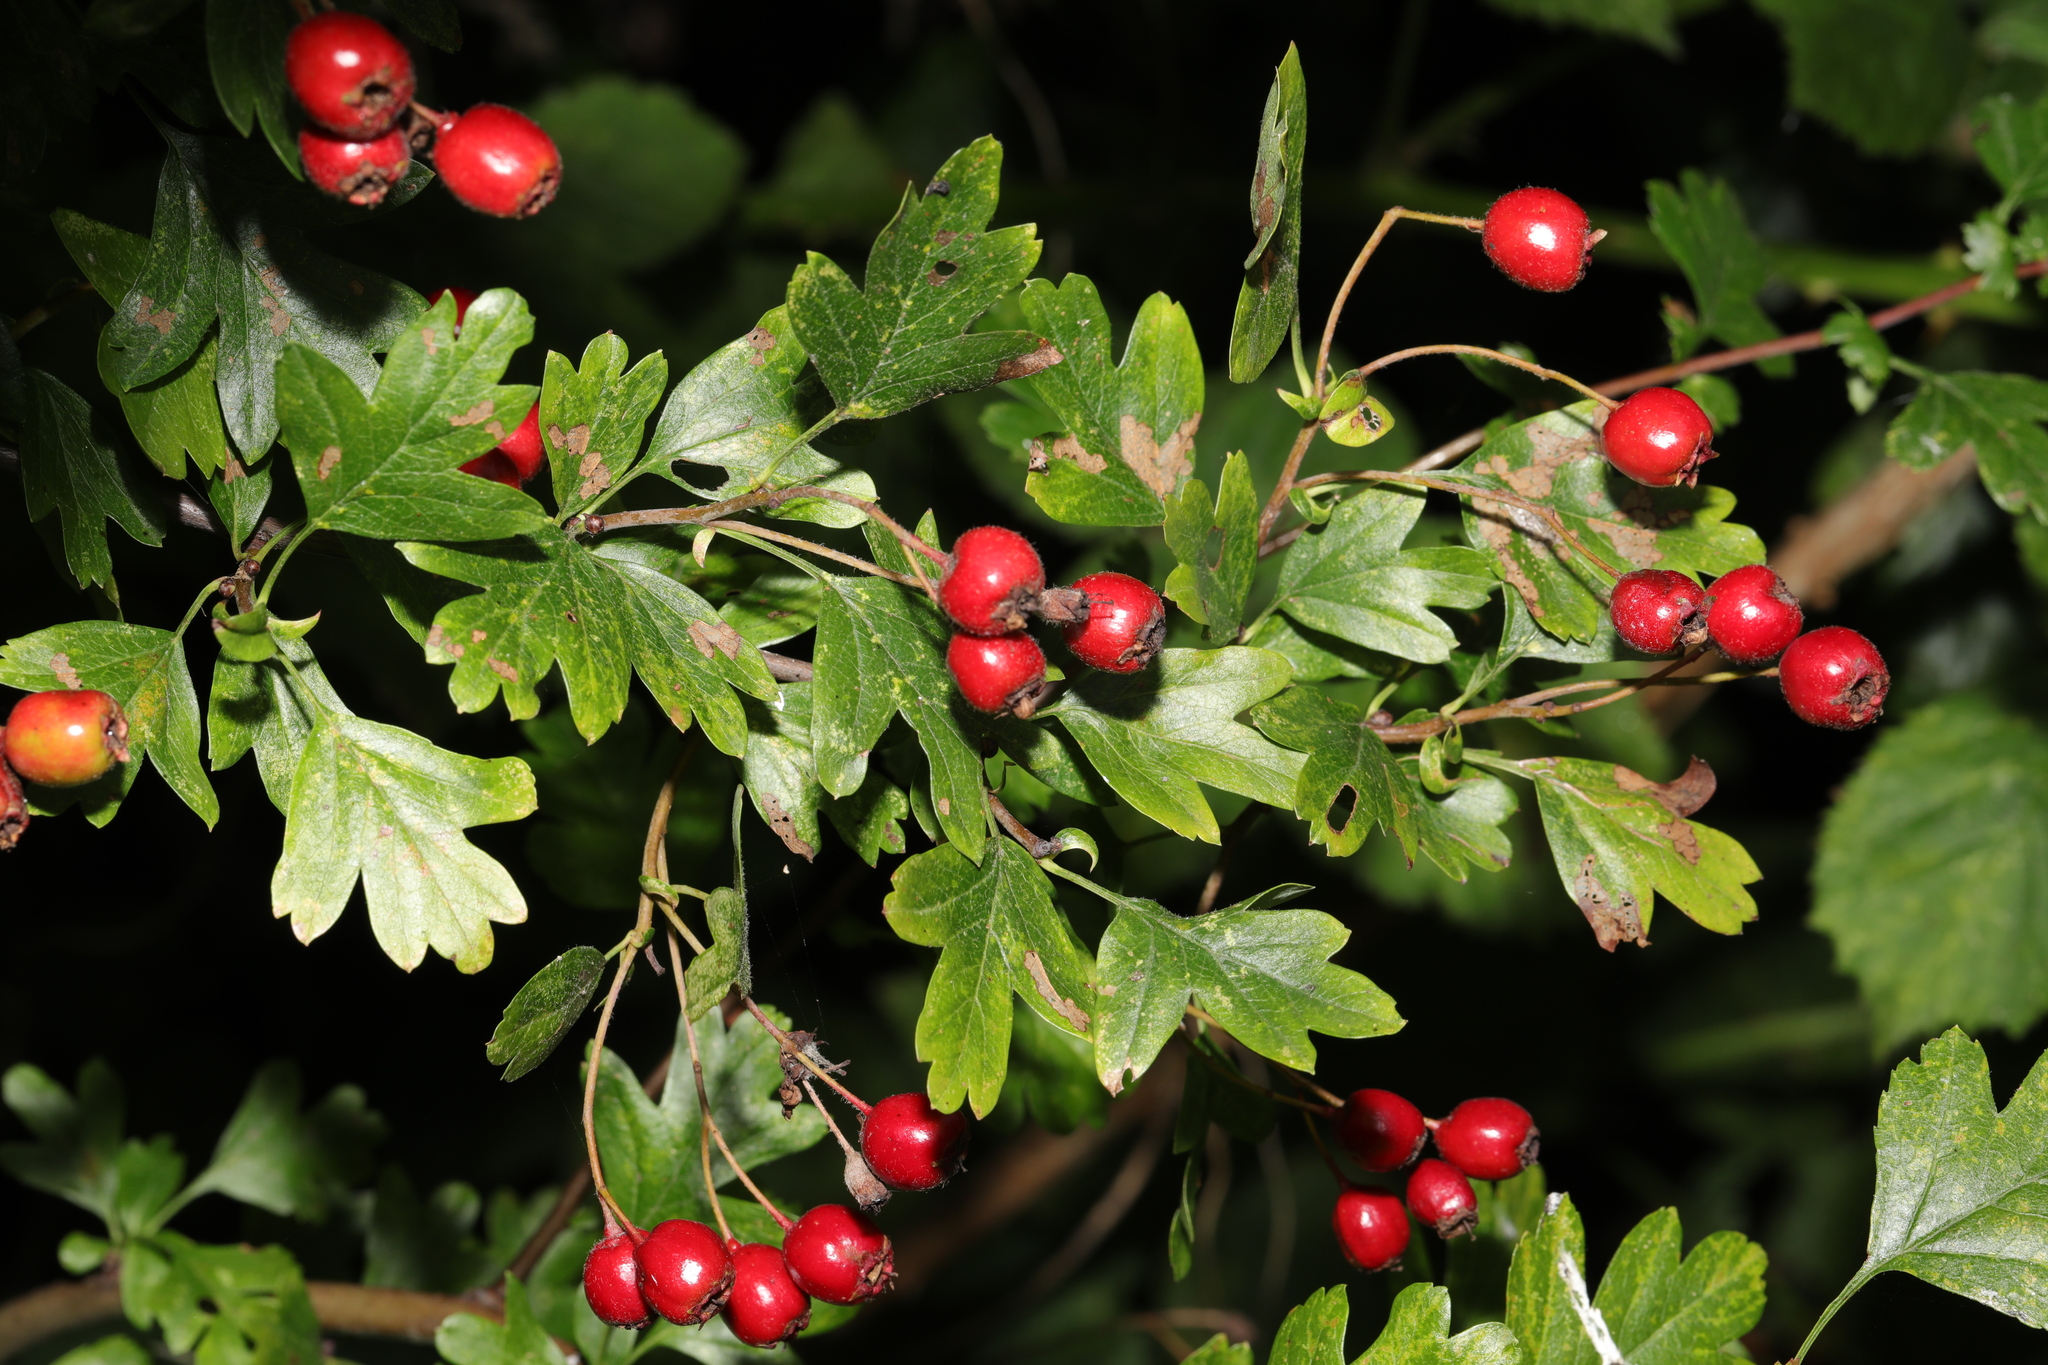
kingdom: Plantae
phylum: Tracheophyta
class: Magnoliopsida
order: Rosales
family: Rosaceae
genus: Crataegus
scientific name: Crataegus monogyna
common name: Hawthorn
